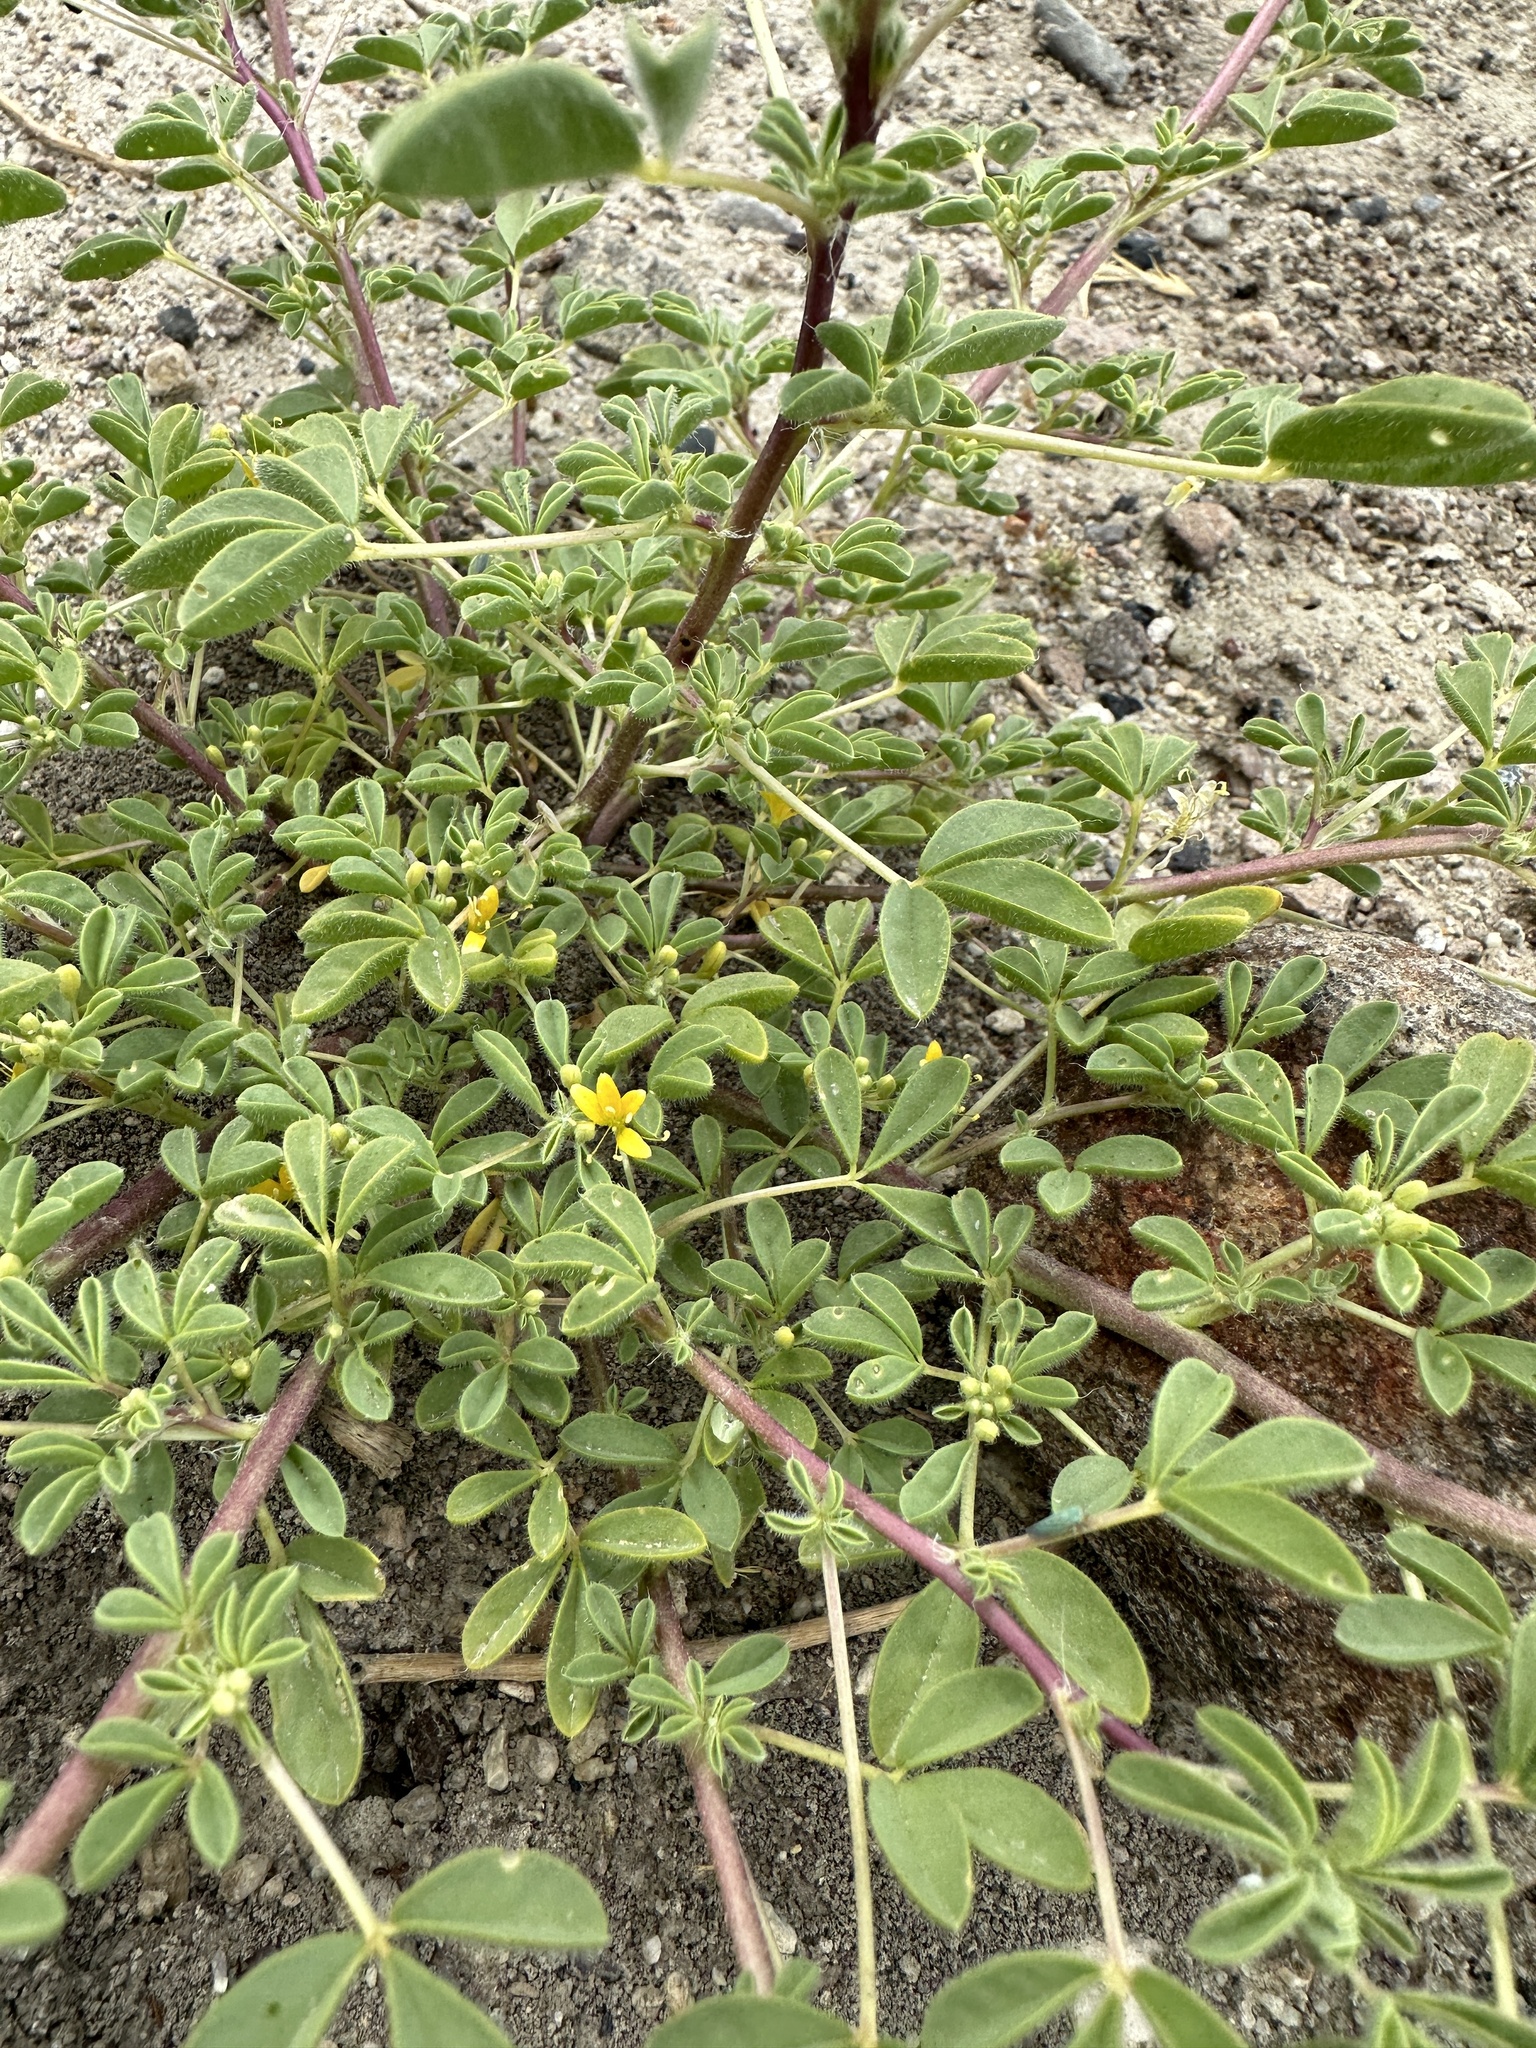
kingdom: Plantae
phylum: Tracheophyta
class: Magnoliopsida
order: Brassicales
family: Cleomaceae
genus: Cleomella
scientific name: Cleomella obtusifolia
